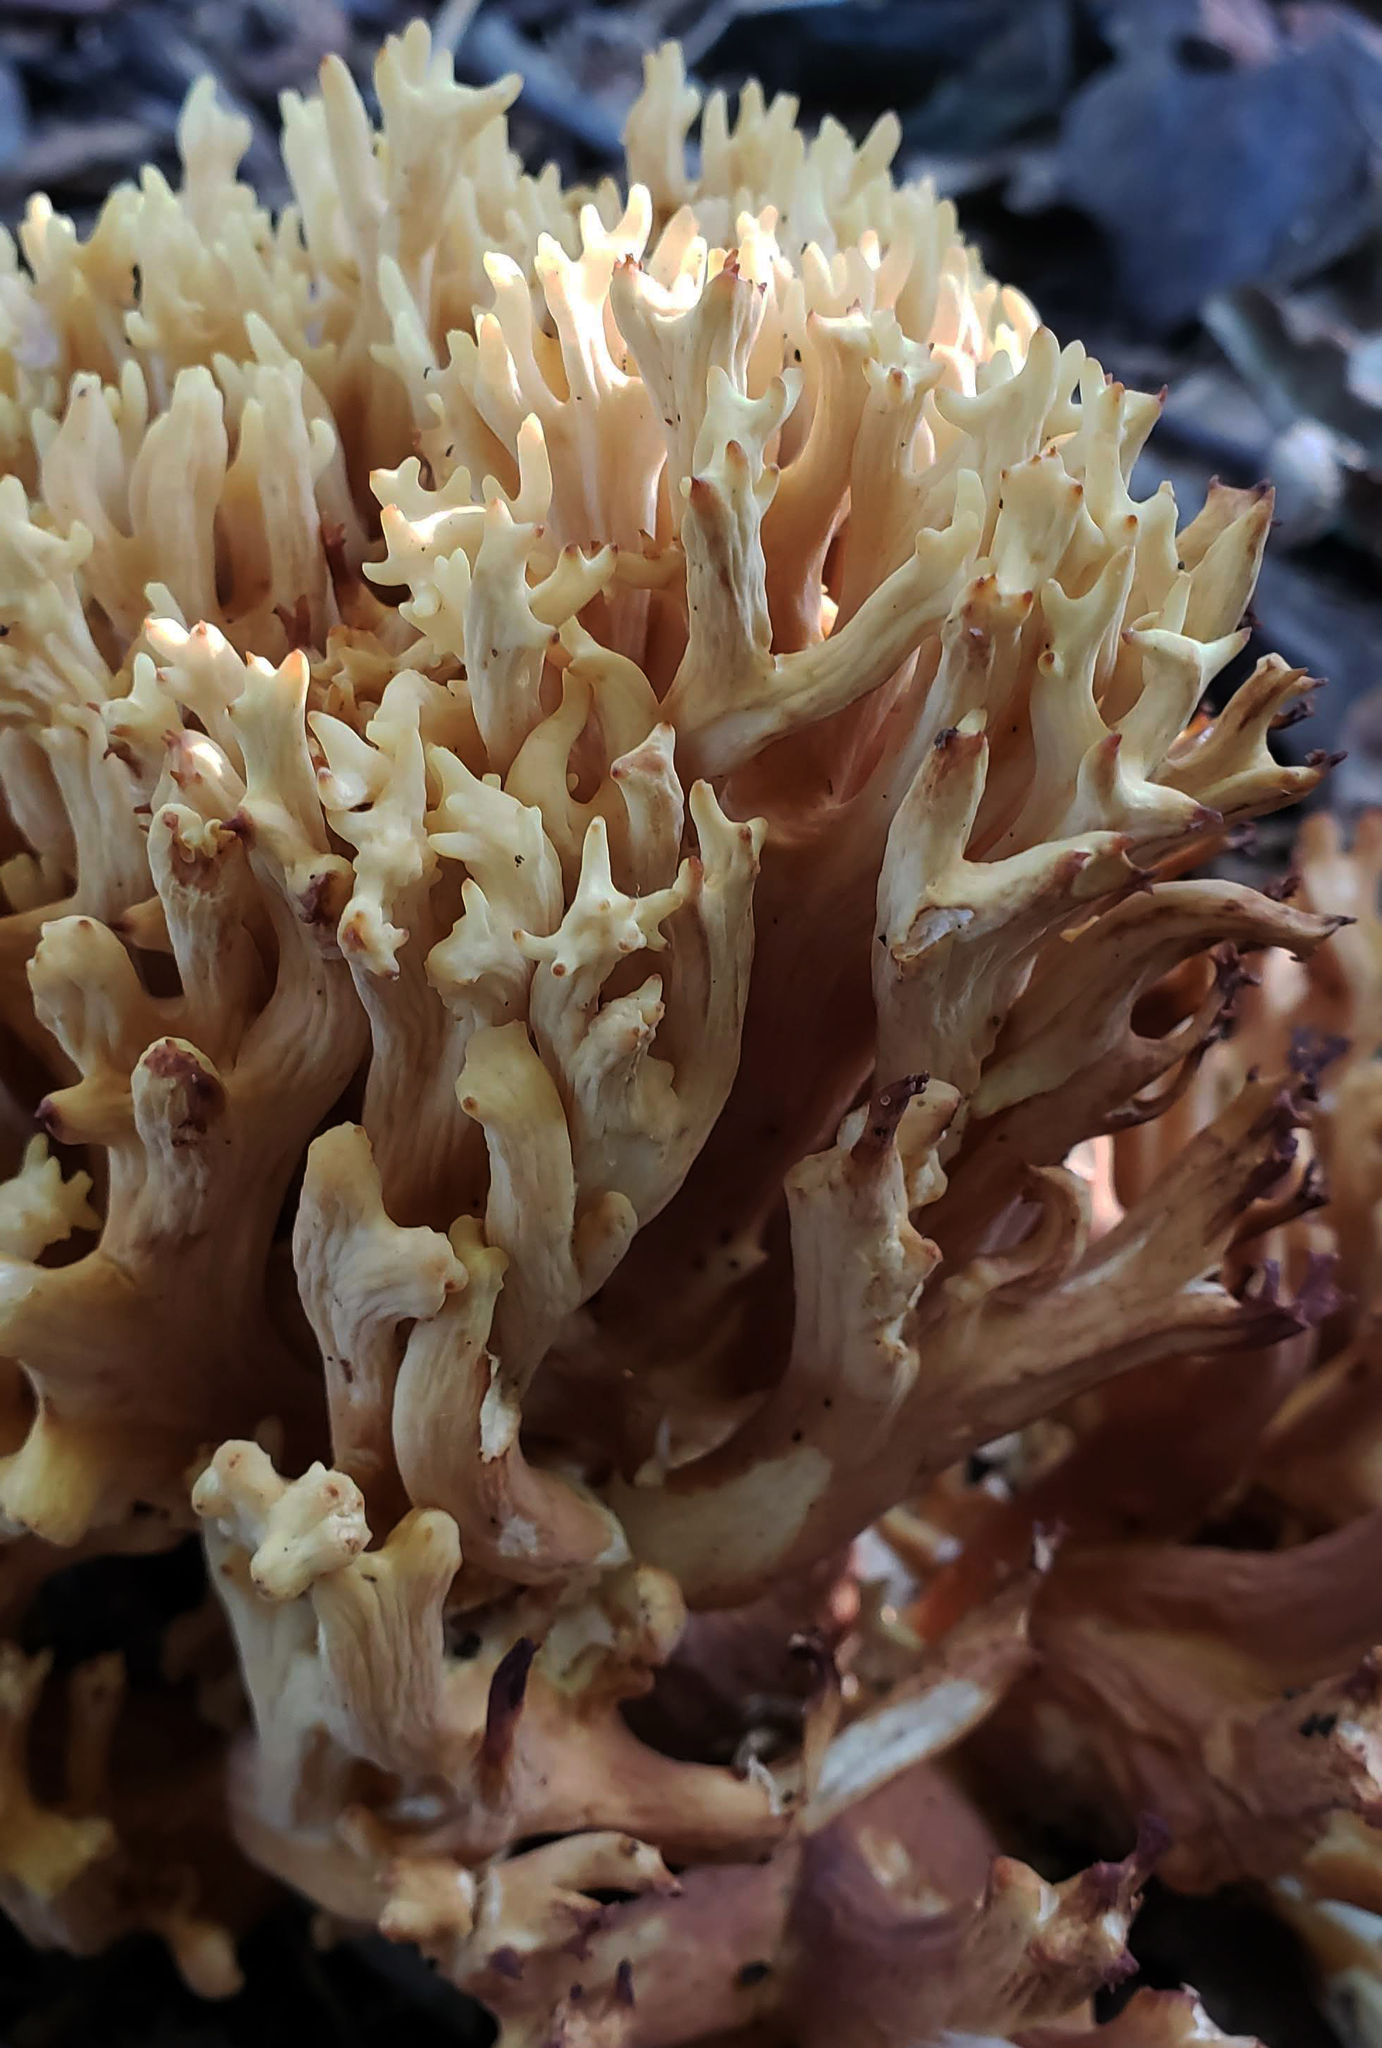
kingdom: Fungi
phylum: Basidiomycota
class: Agaricomycetes
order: Gomphales
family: Gomphaceae
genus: Ramaria
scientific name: Ramaria
